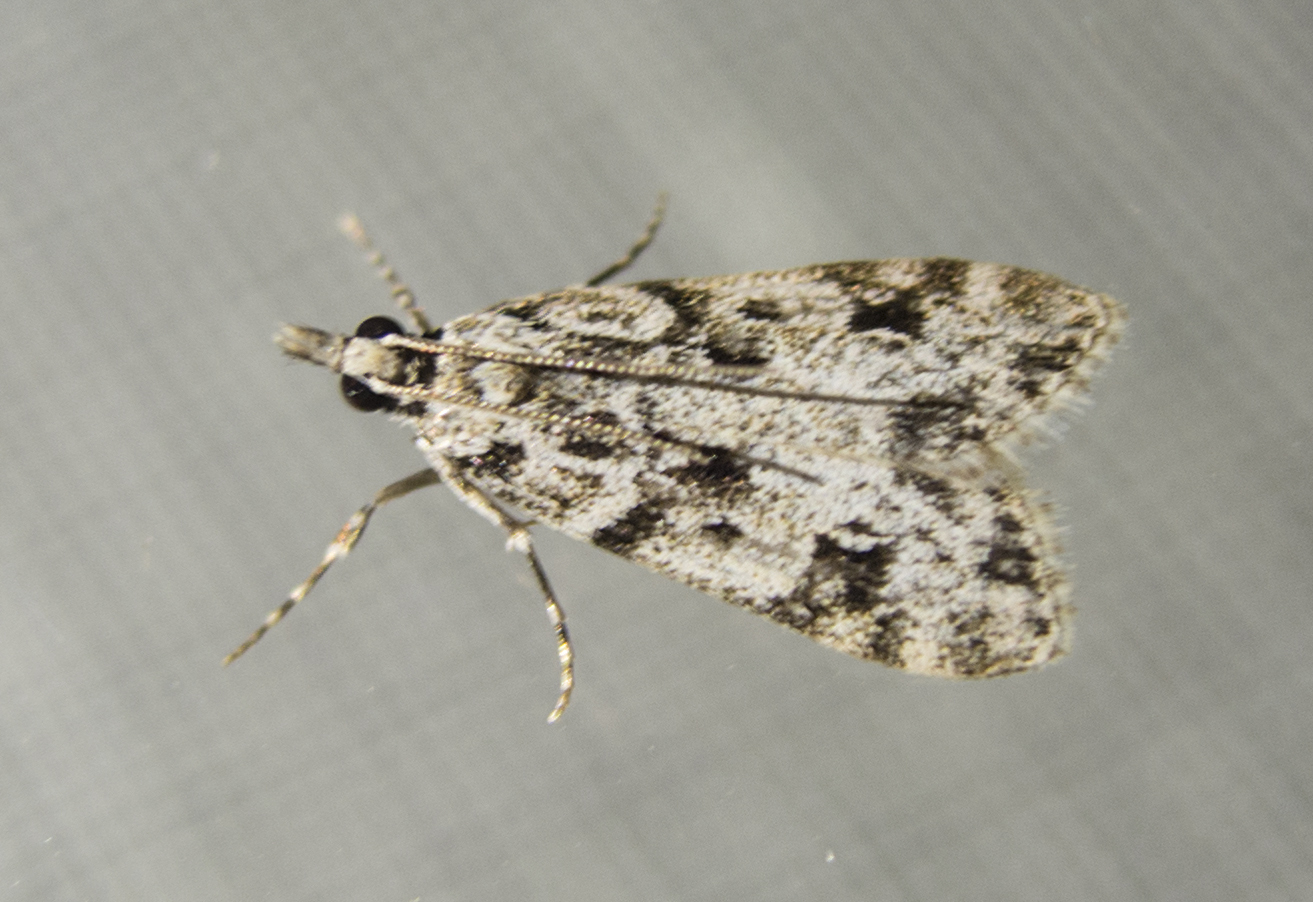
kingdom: Animalia
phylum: Arthropoda
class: Insecta
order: Lepidoptera
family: Crambidae
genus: Eudonia
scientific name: Eudonia delunella
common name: Pied grey
